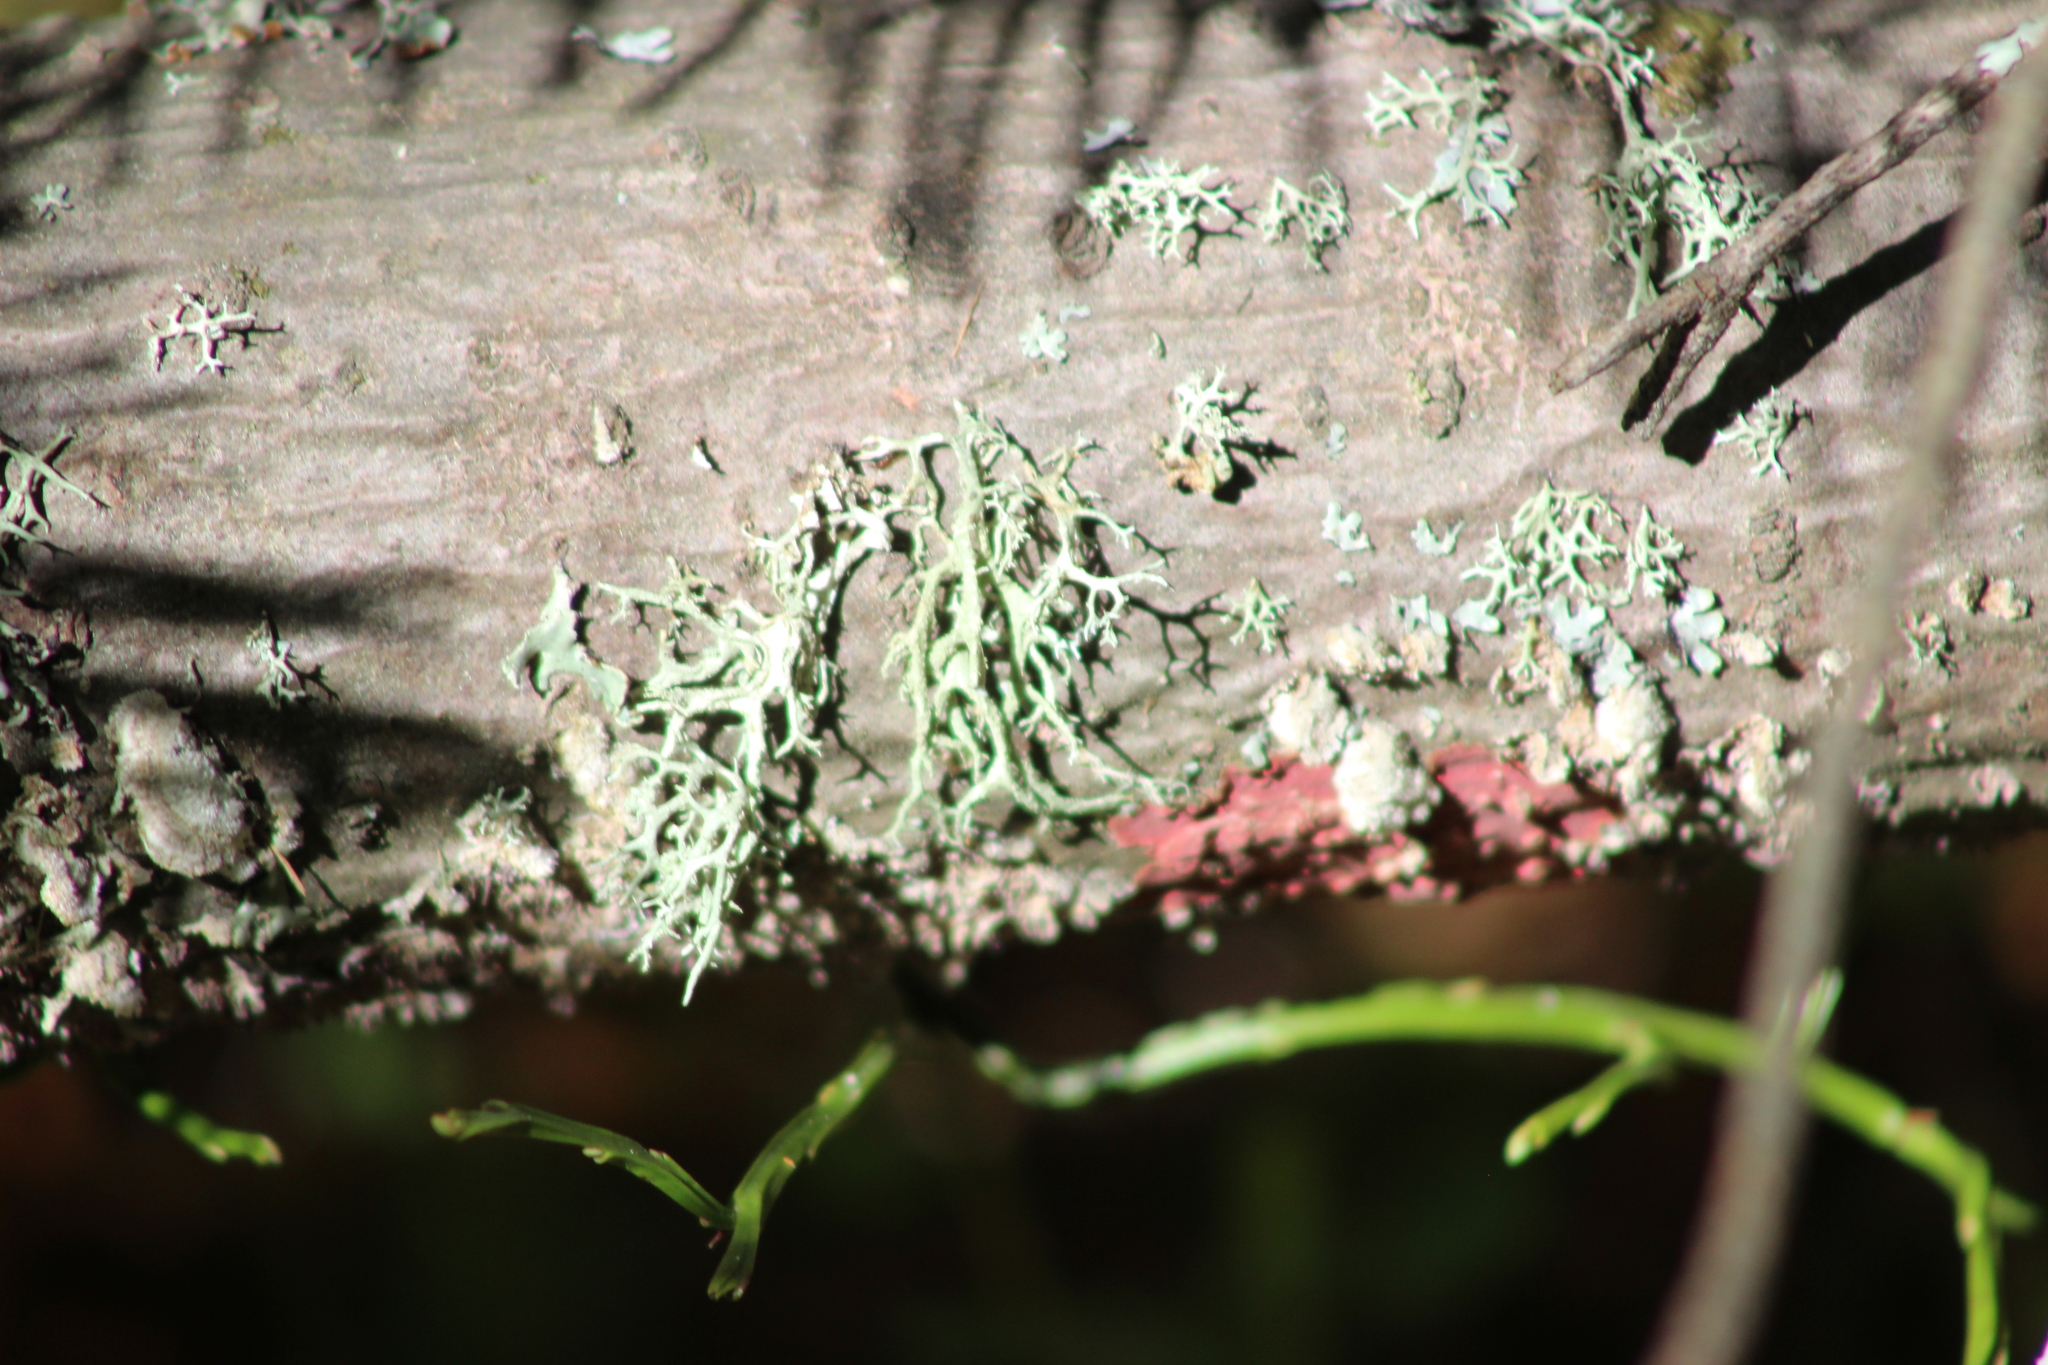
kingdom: Fungi
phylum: Basidiomycota
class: Agaricomycetes
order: Hymenochaetales
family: Hymenochaetaceae
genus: Hymenochaete
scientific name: Hymenochaete cruenta
